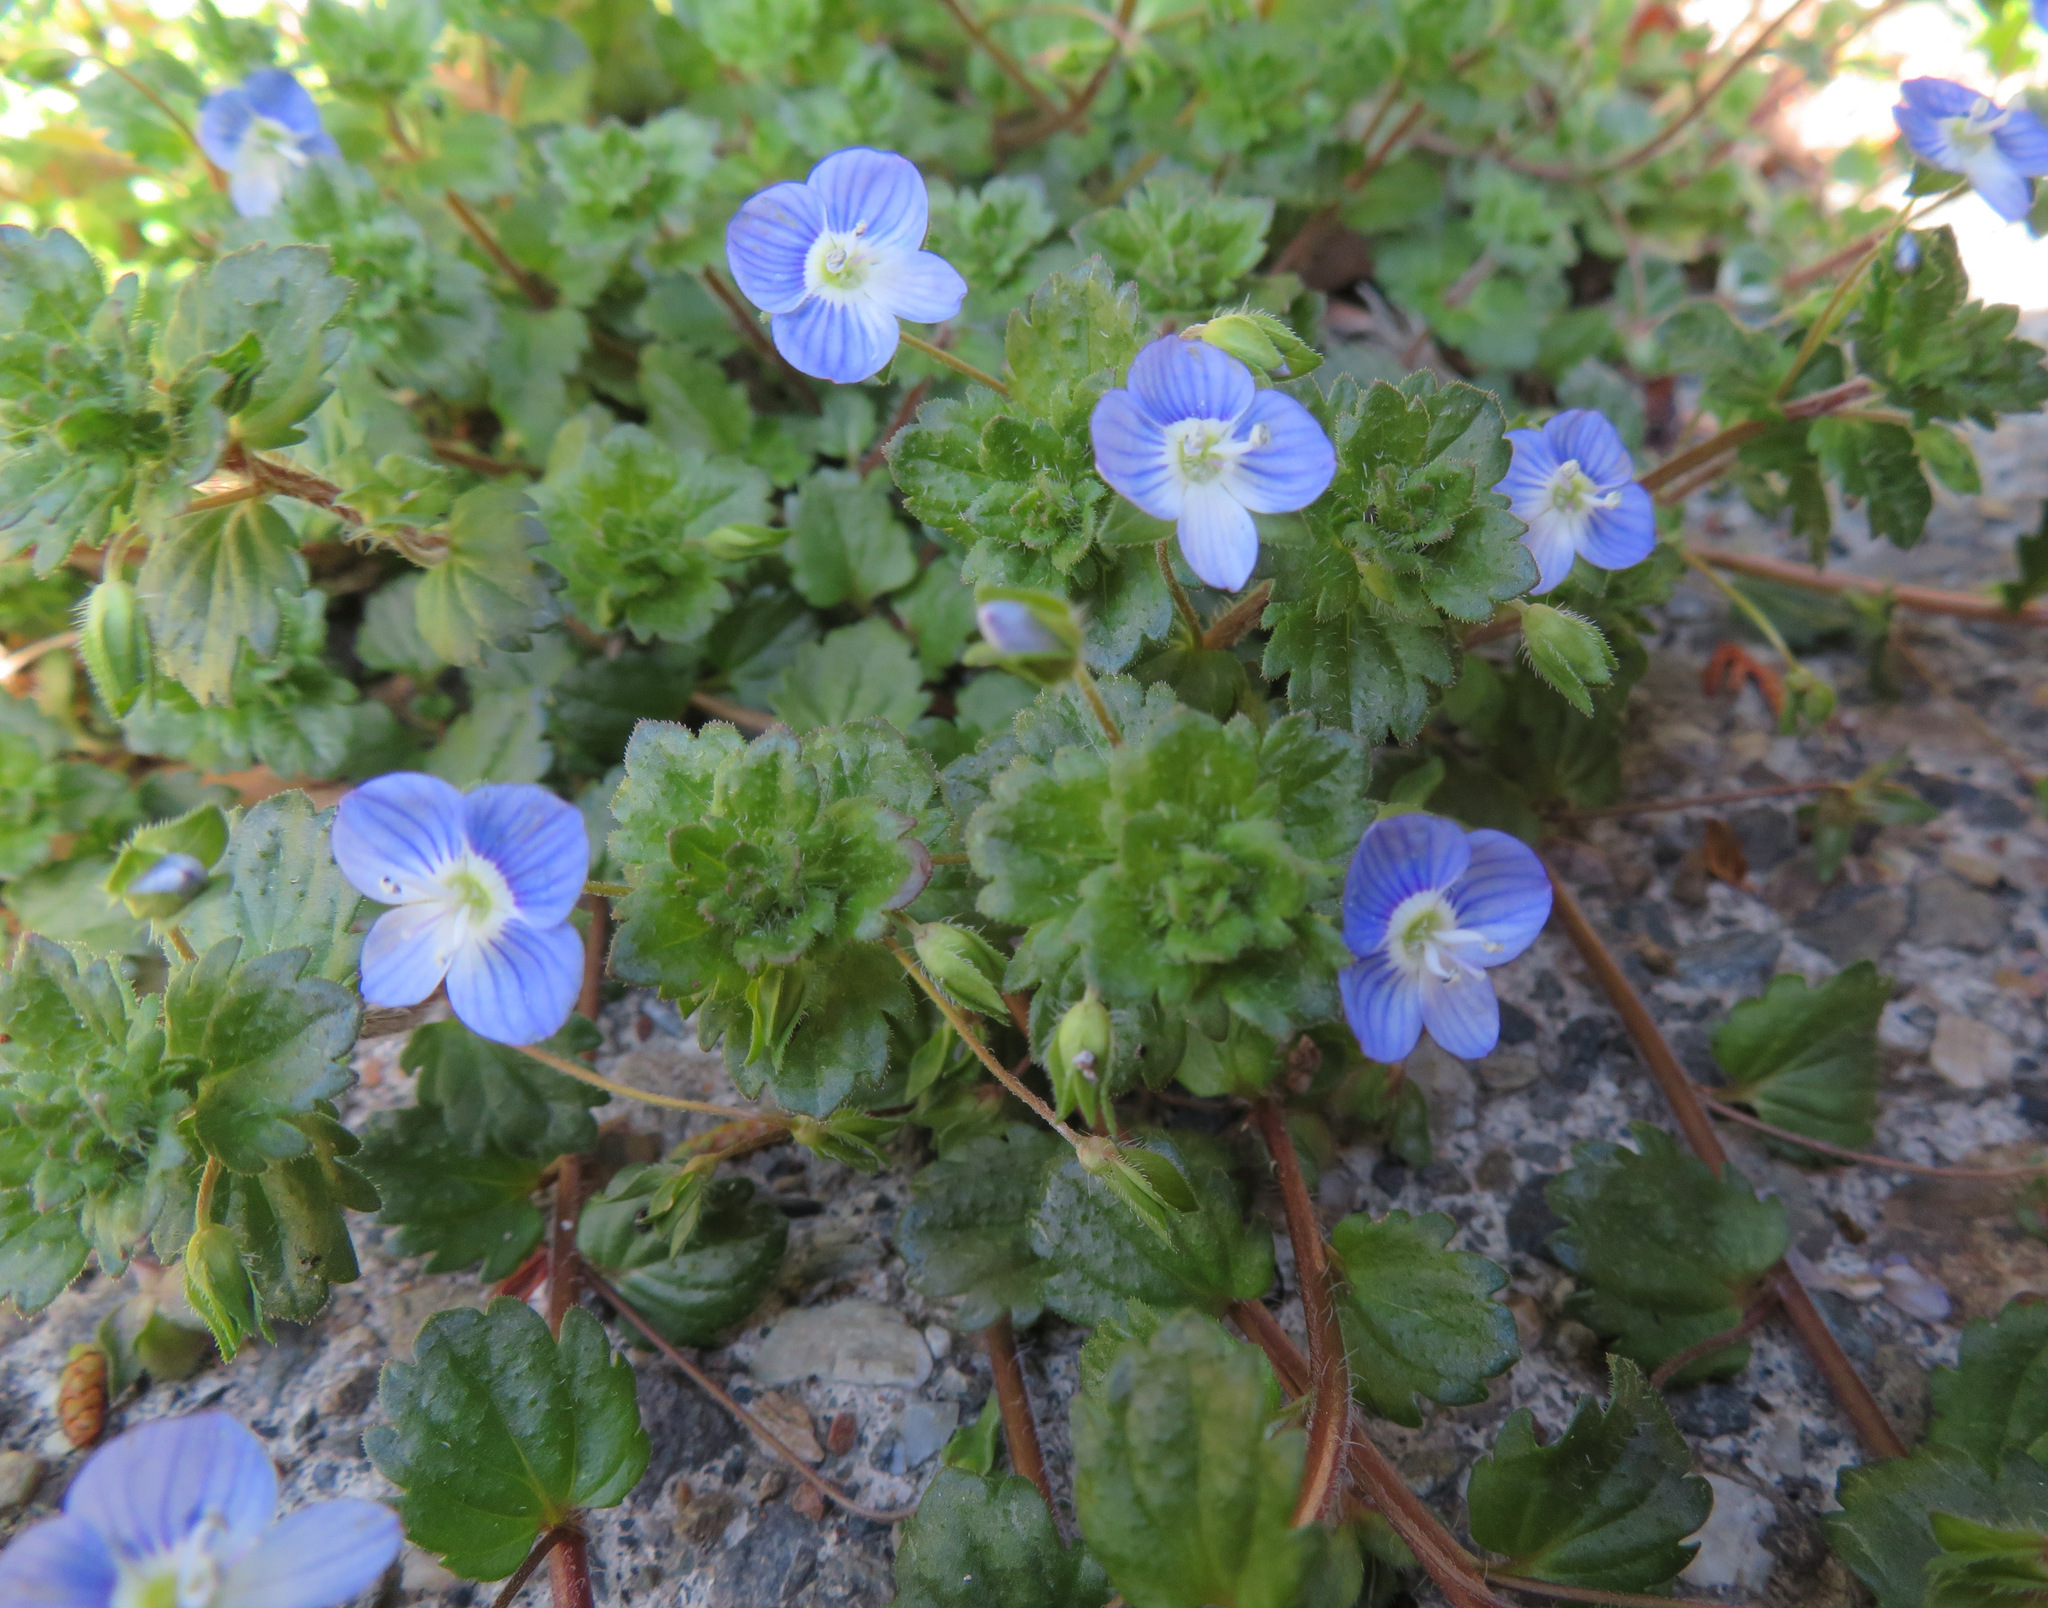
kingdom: Plantae
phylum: Tracheophyta
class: Magnoliopsida
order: Lamiales
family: Plantaginaceae
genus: Veronica
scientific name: Veronica persica
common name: Common field-speedwell
